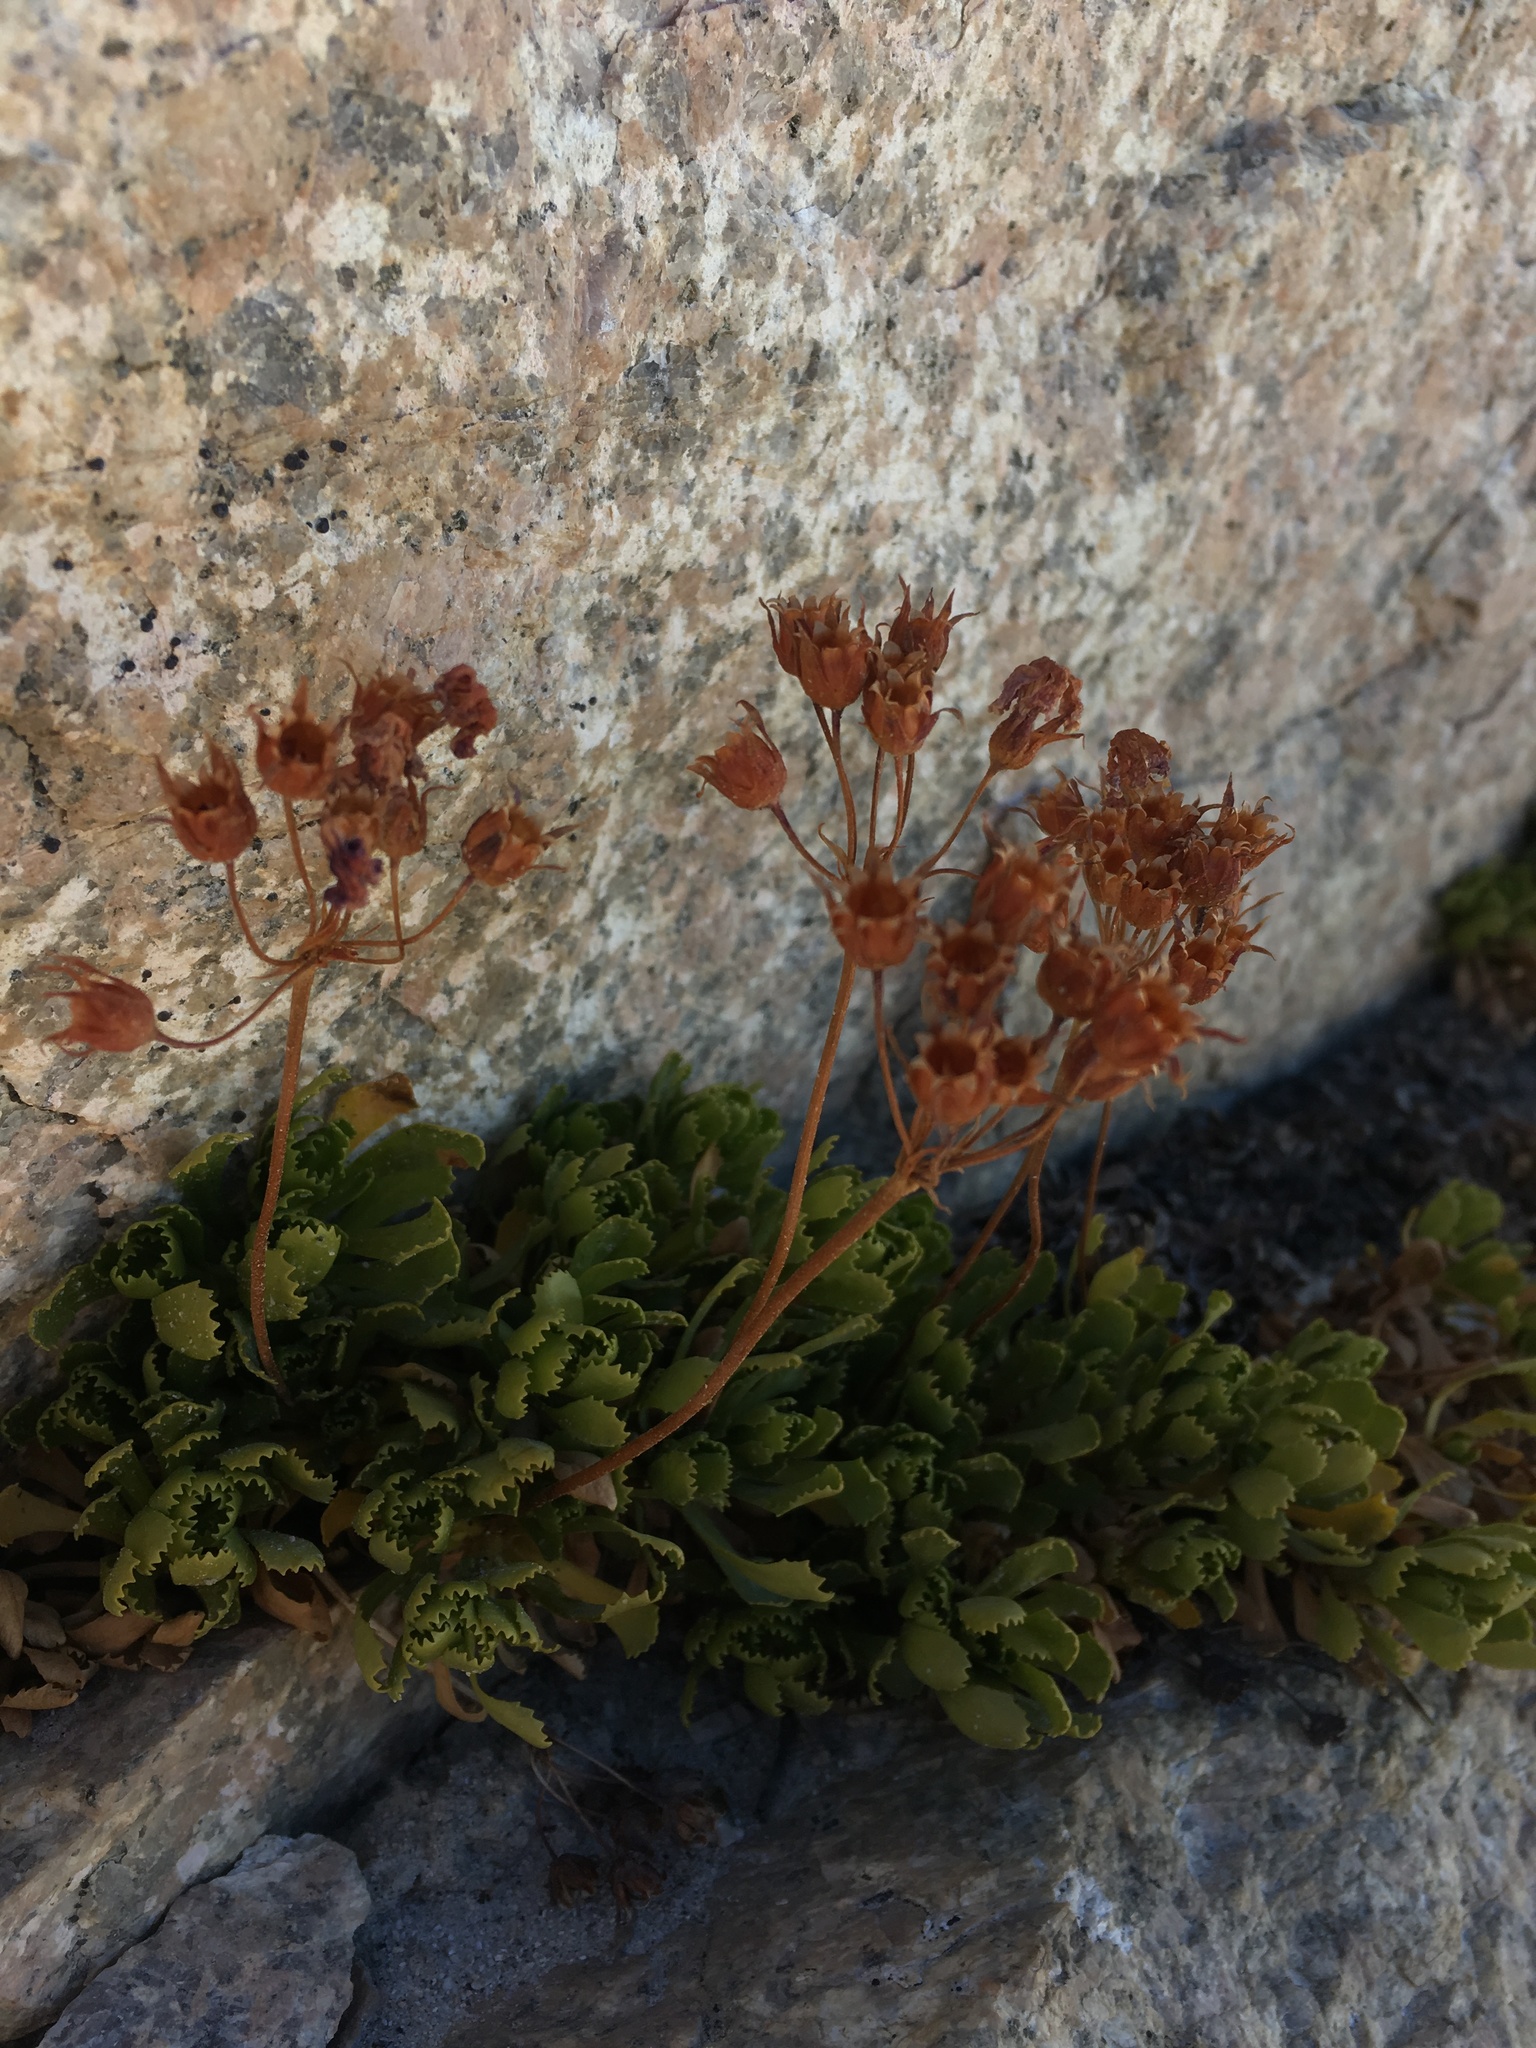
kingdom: Plantae
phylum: Tracheophyta
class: Magnoliopsida
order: Ericales
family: Primulaceae
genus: Primula
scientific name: Primula suffrutescens
